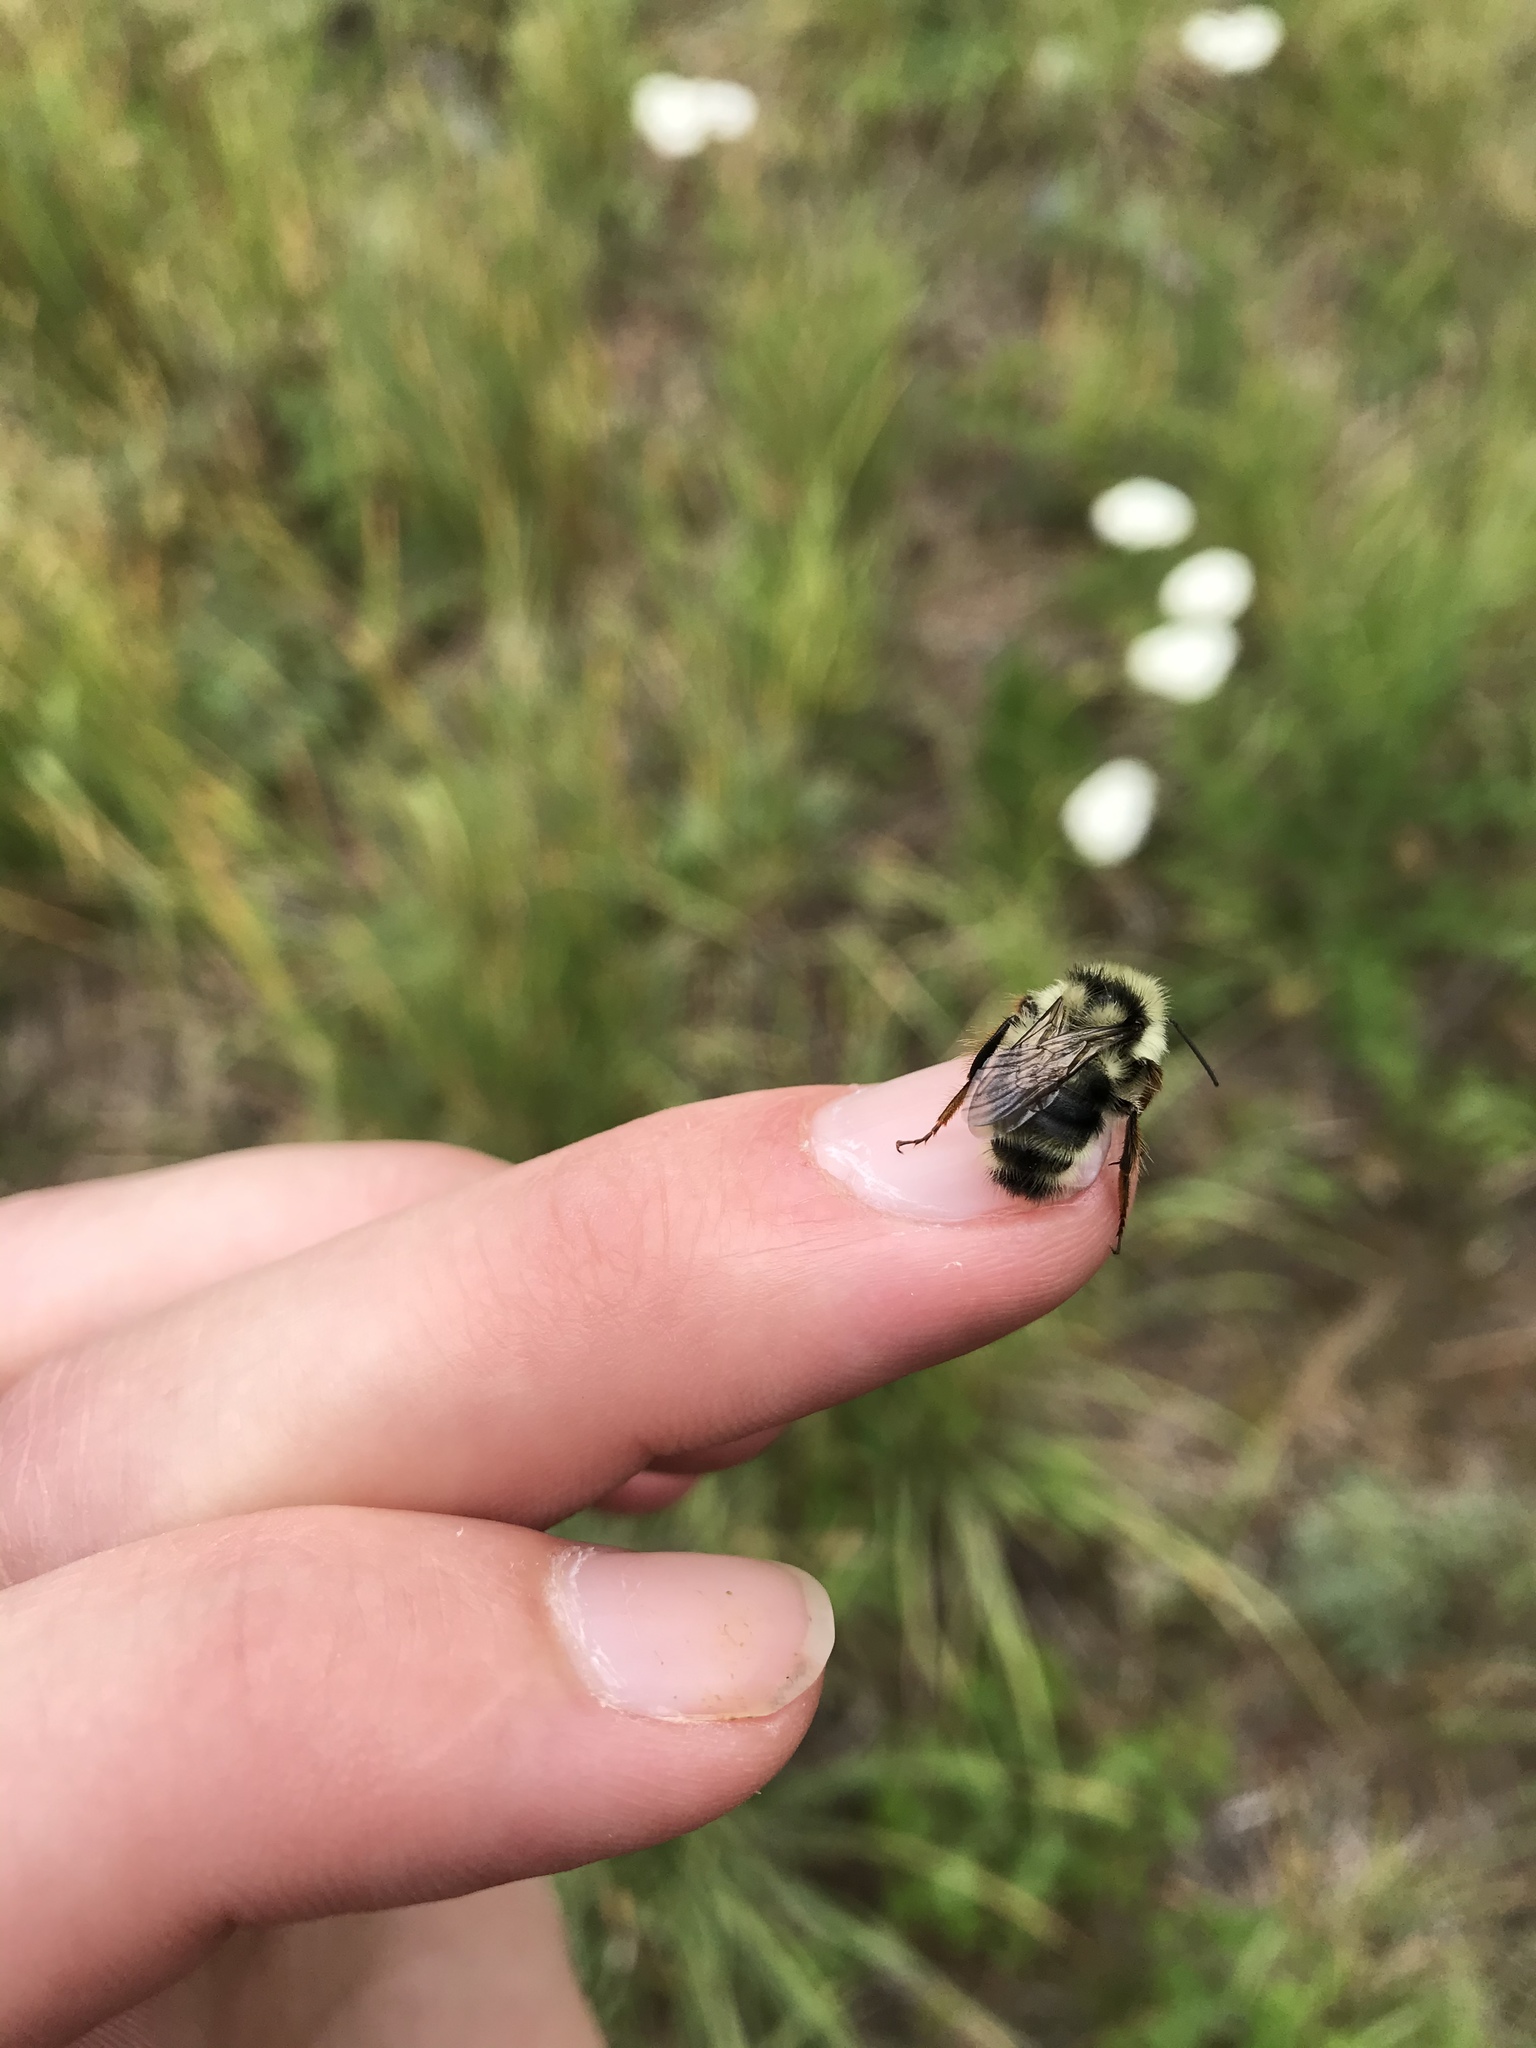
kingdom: Animalia
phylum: Arthropoda
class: Insecta
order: Hymenoptera
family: Apidae
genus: Bombus
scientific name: Bombus vancouverensis
